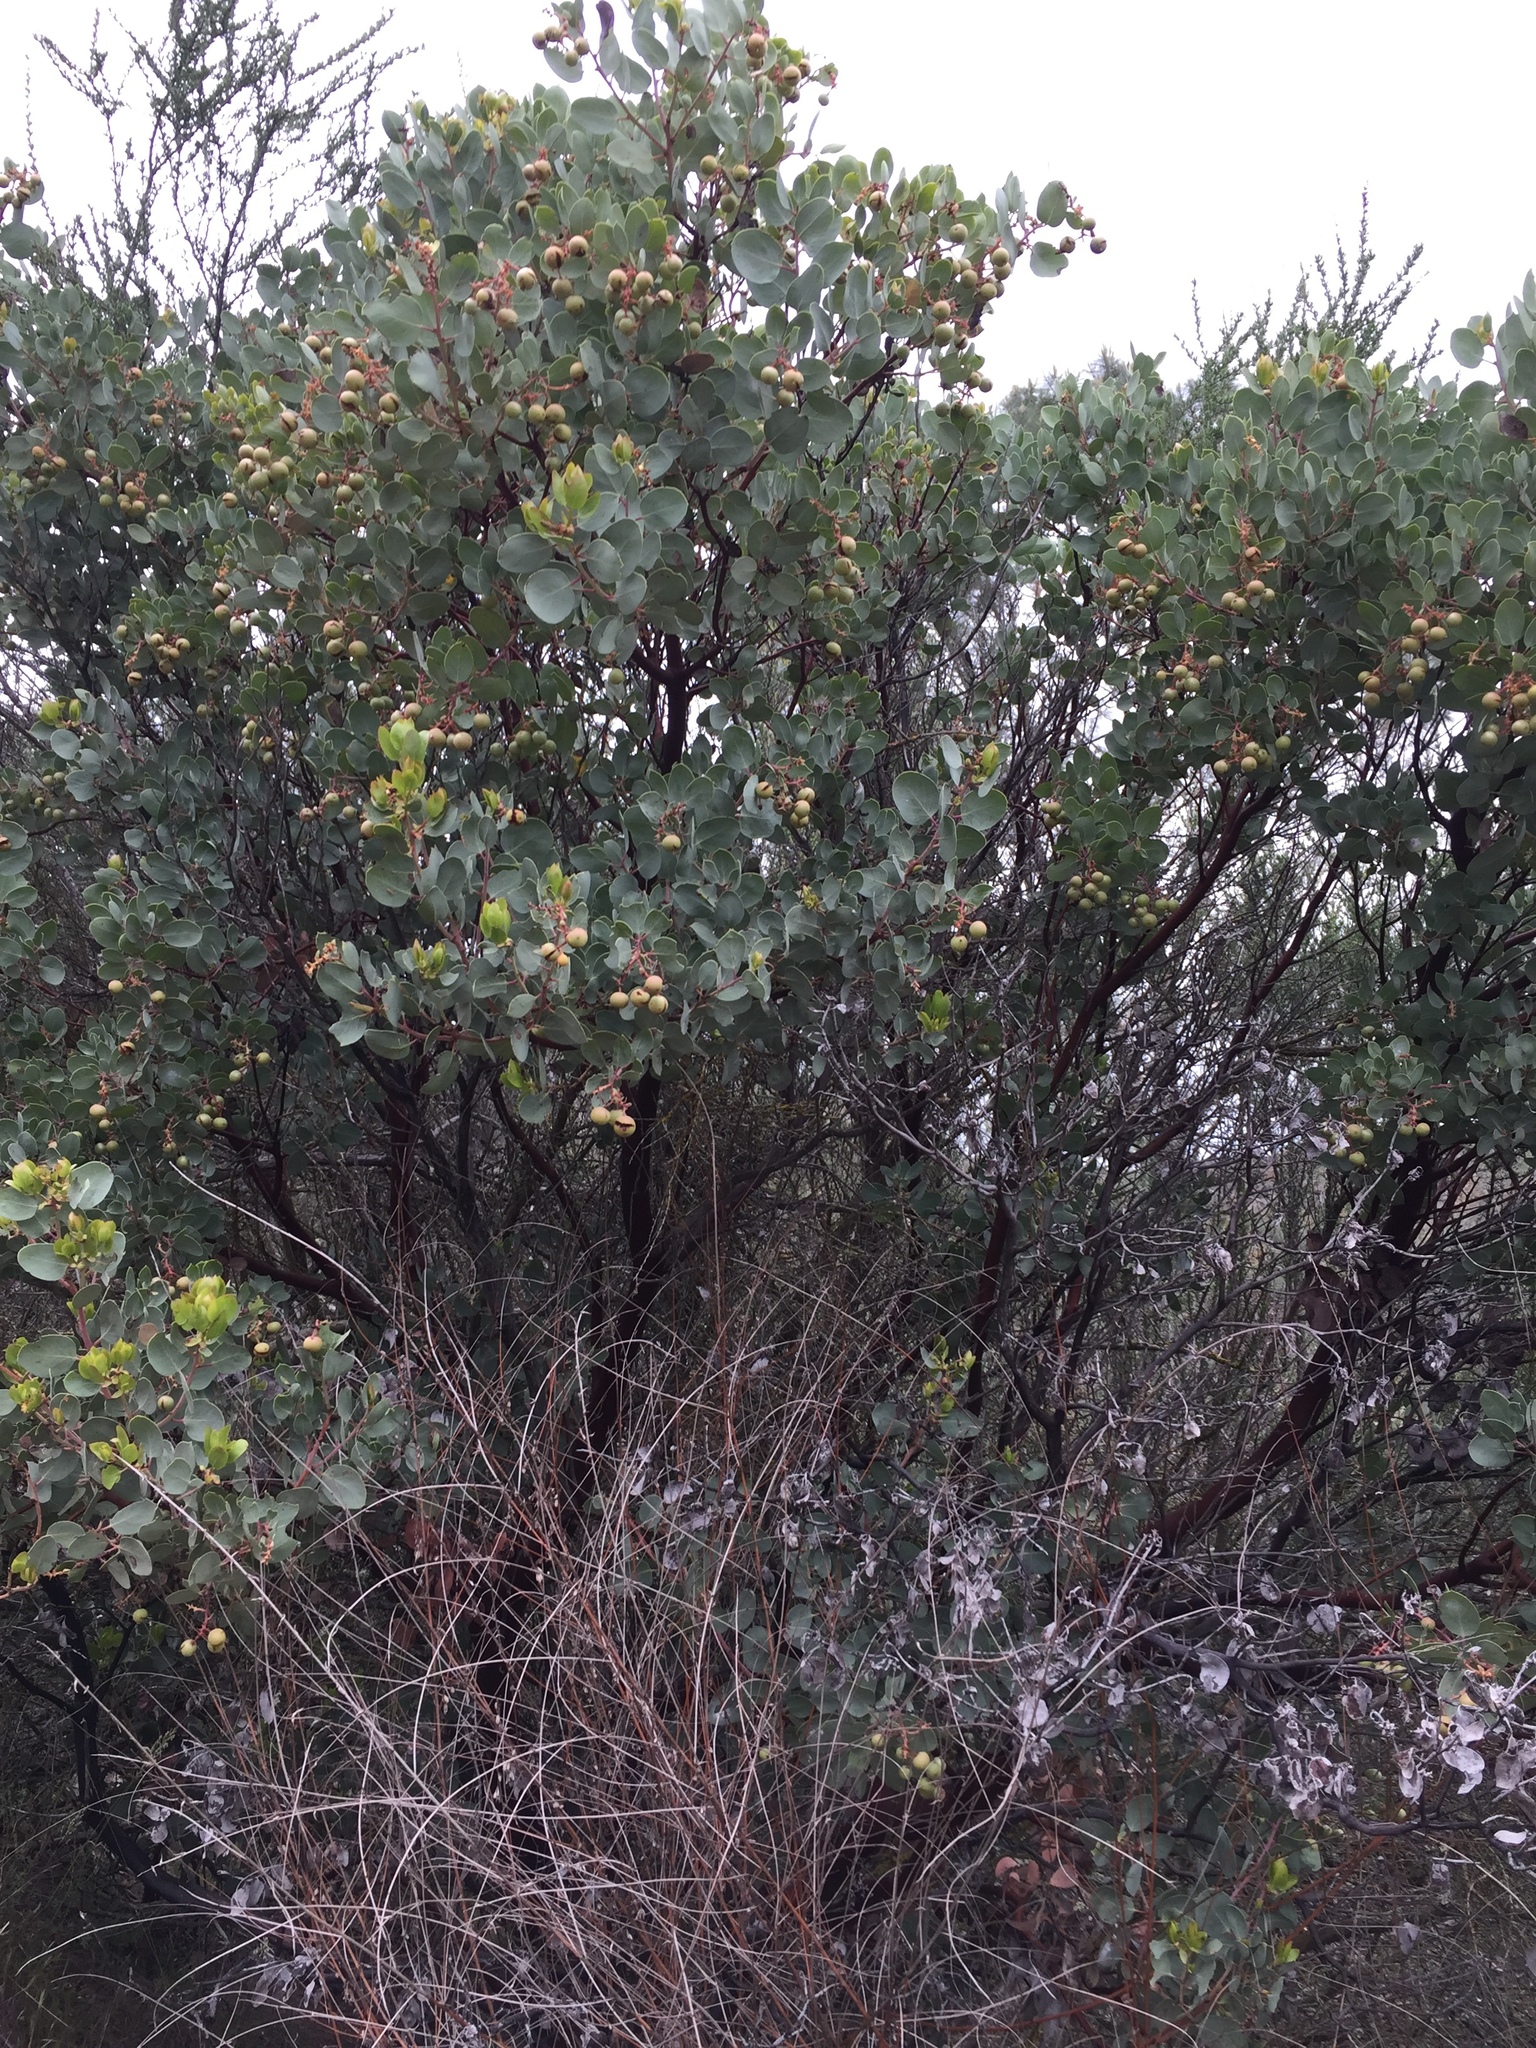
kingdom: Plantae
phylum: Tracheophyta
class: Magnoliopsida
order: Ericales
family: Ericaceae
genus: Arctostaphylos
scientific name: Arctostaphylos glauca
